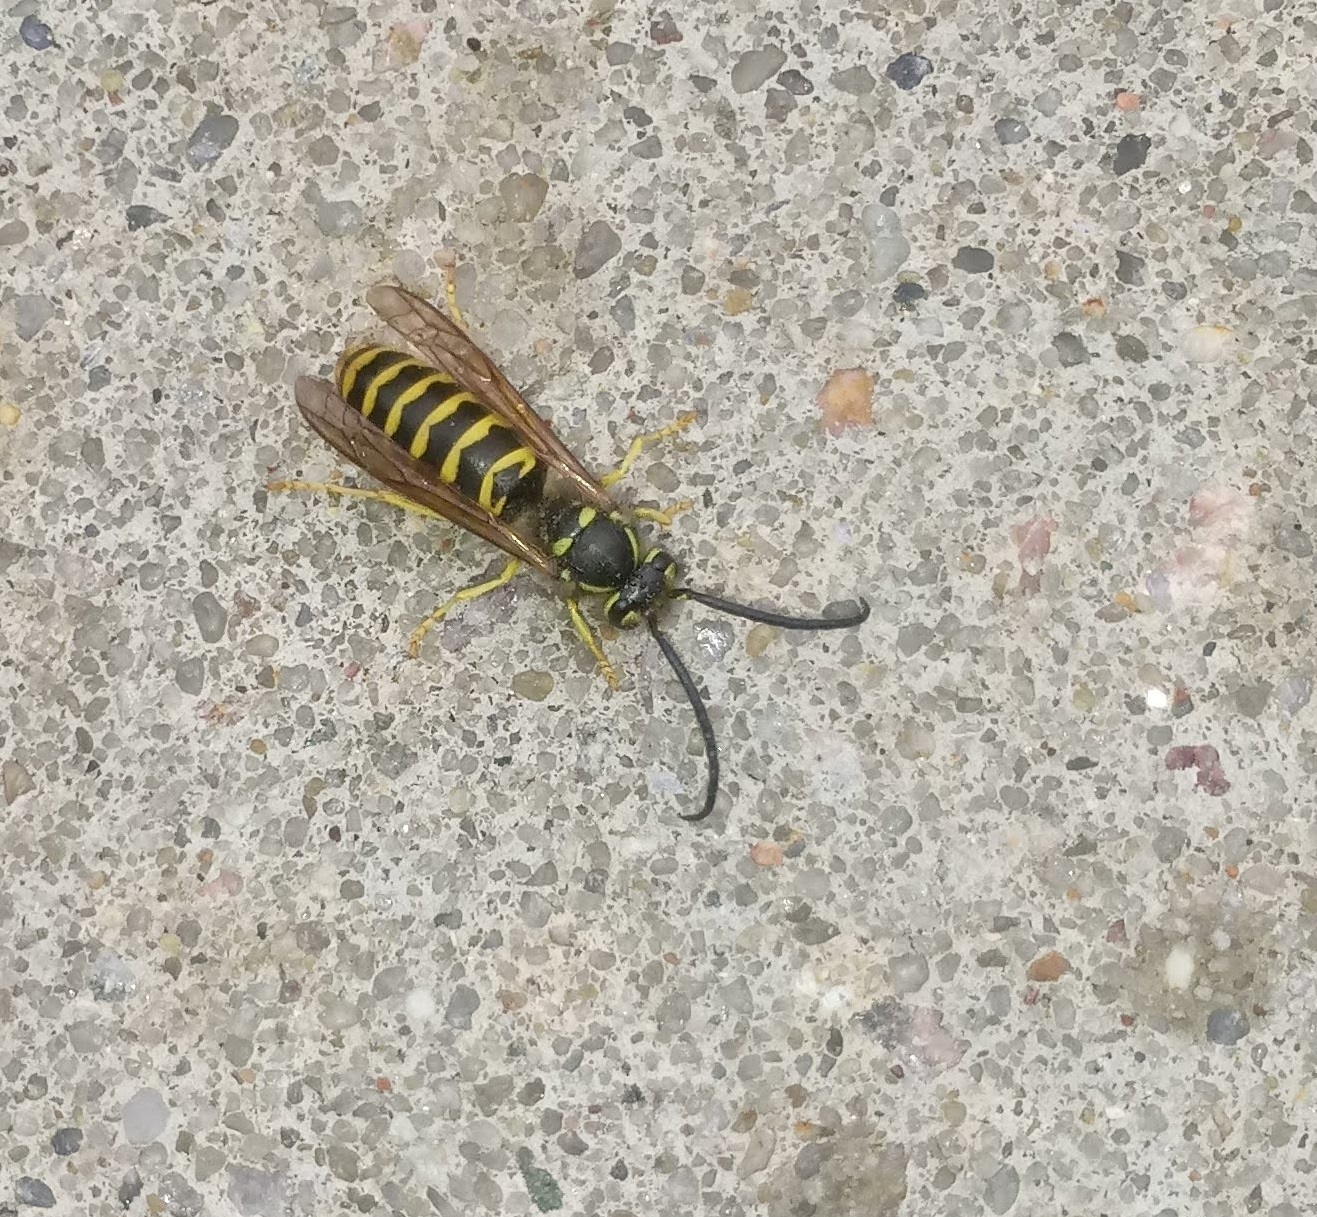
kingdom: Animalia
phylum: Arthropoda
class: Insecta
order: Hymenoptera
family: Vespidae
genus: Vespula
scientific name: Vespula maculifrons
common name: Eastern yellowjacket
